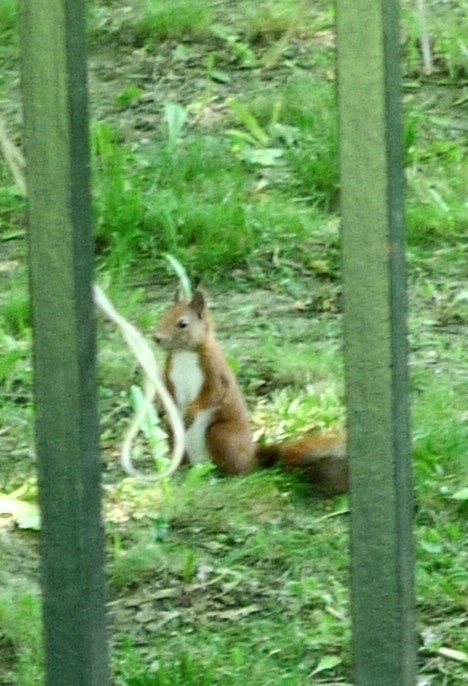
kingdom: Animalia
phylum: Chordata
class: Mammalia
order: Rodentia
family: Sciuridae
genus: Sciurus
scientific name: Sciurus vulgaris
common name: Eurasian red squirrel
